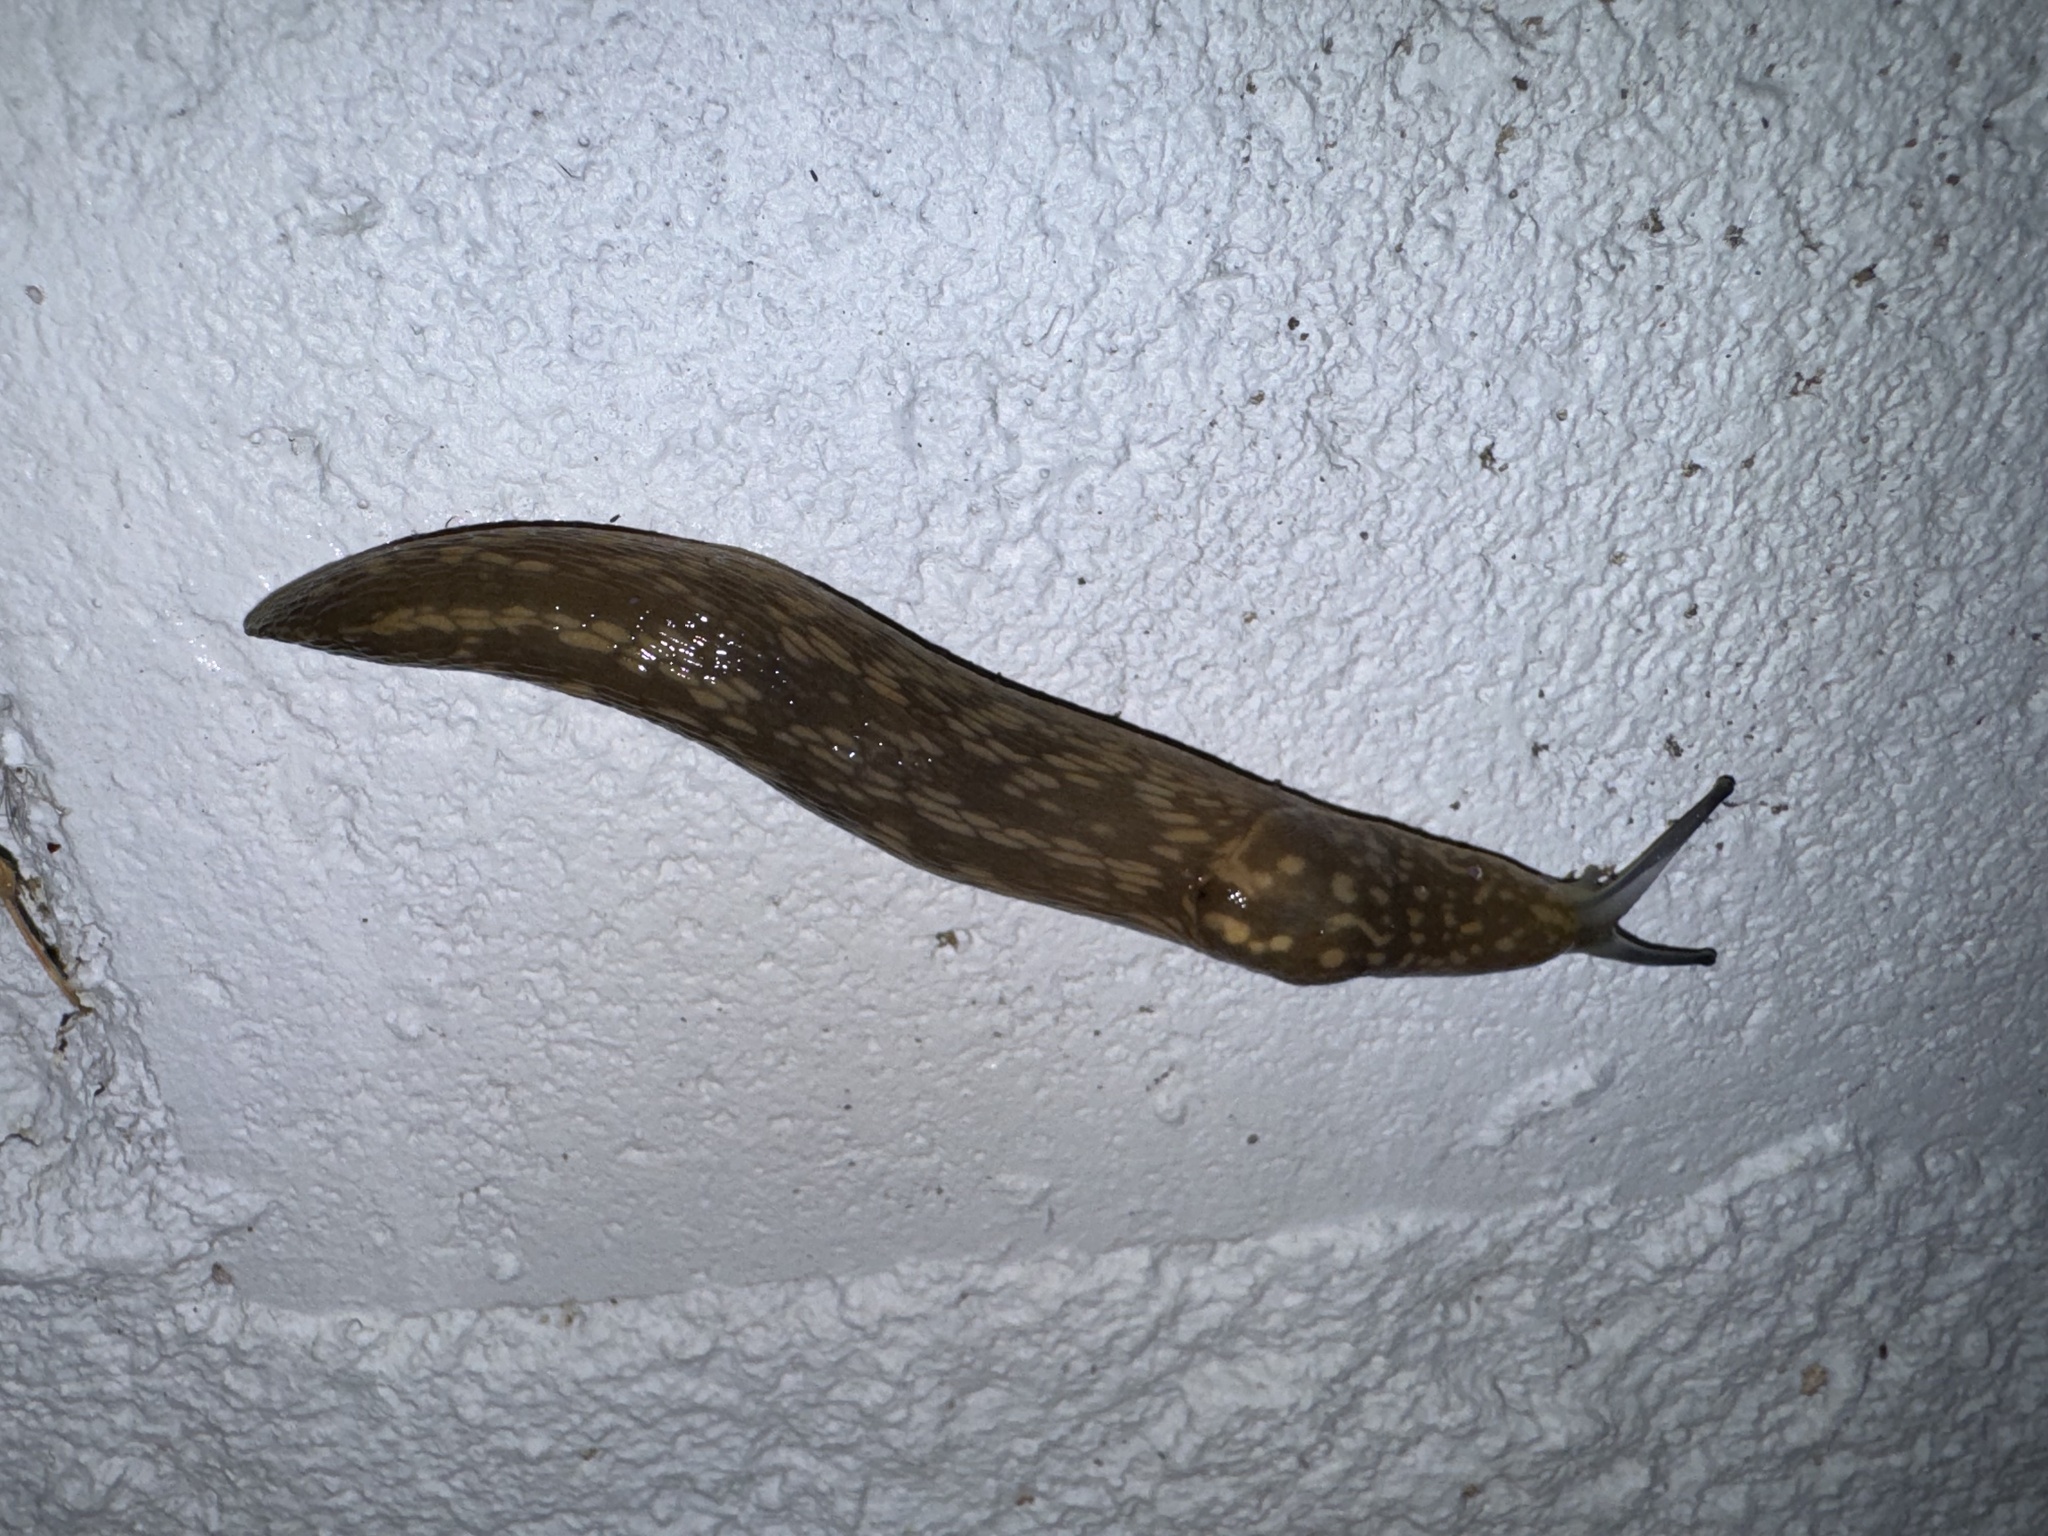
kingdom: Animalia
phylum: Mollusca
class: Gastropoda
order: Stylommatophora
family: Limacidae
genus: Limacus
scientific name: Limacus flavus
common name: Yellow gardenslug
